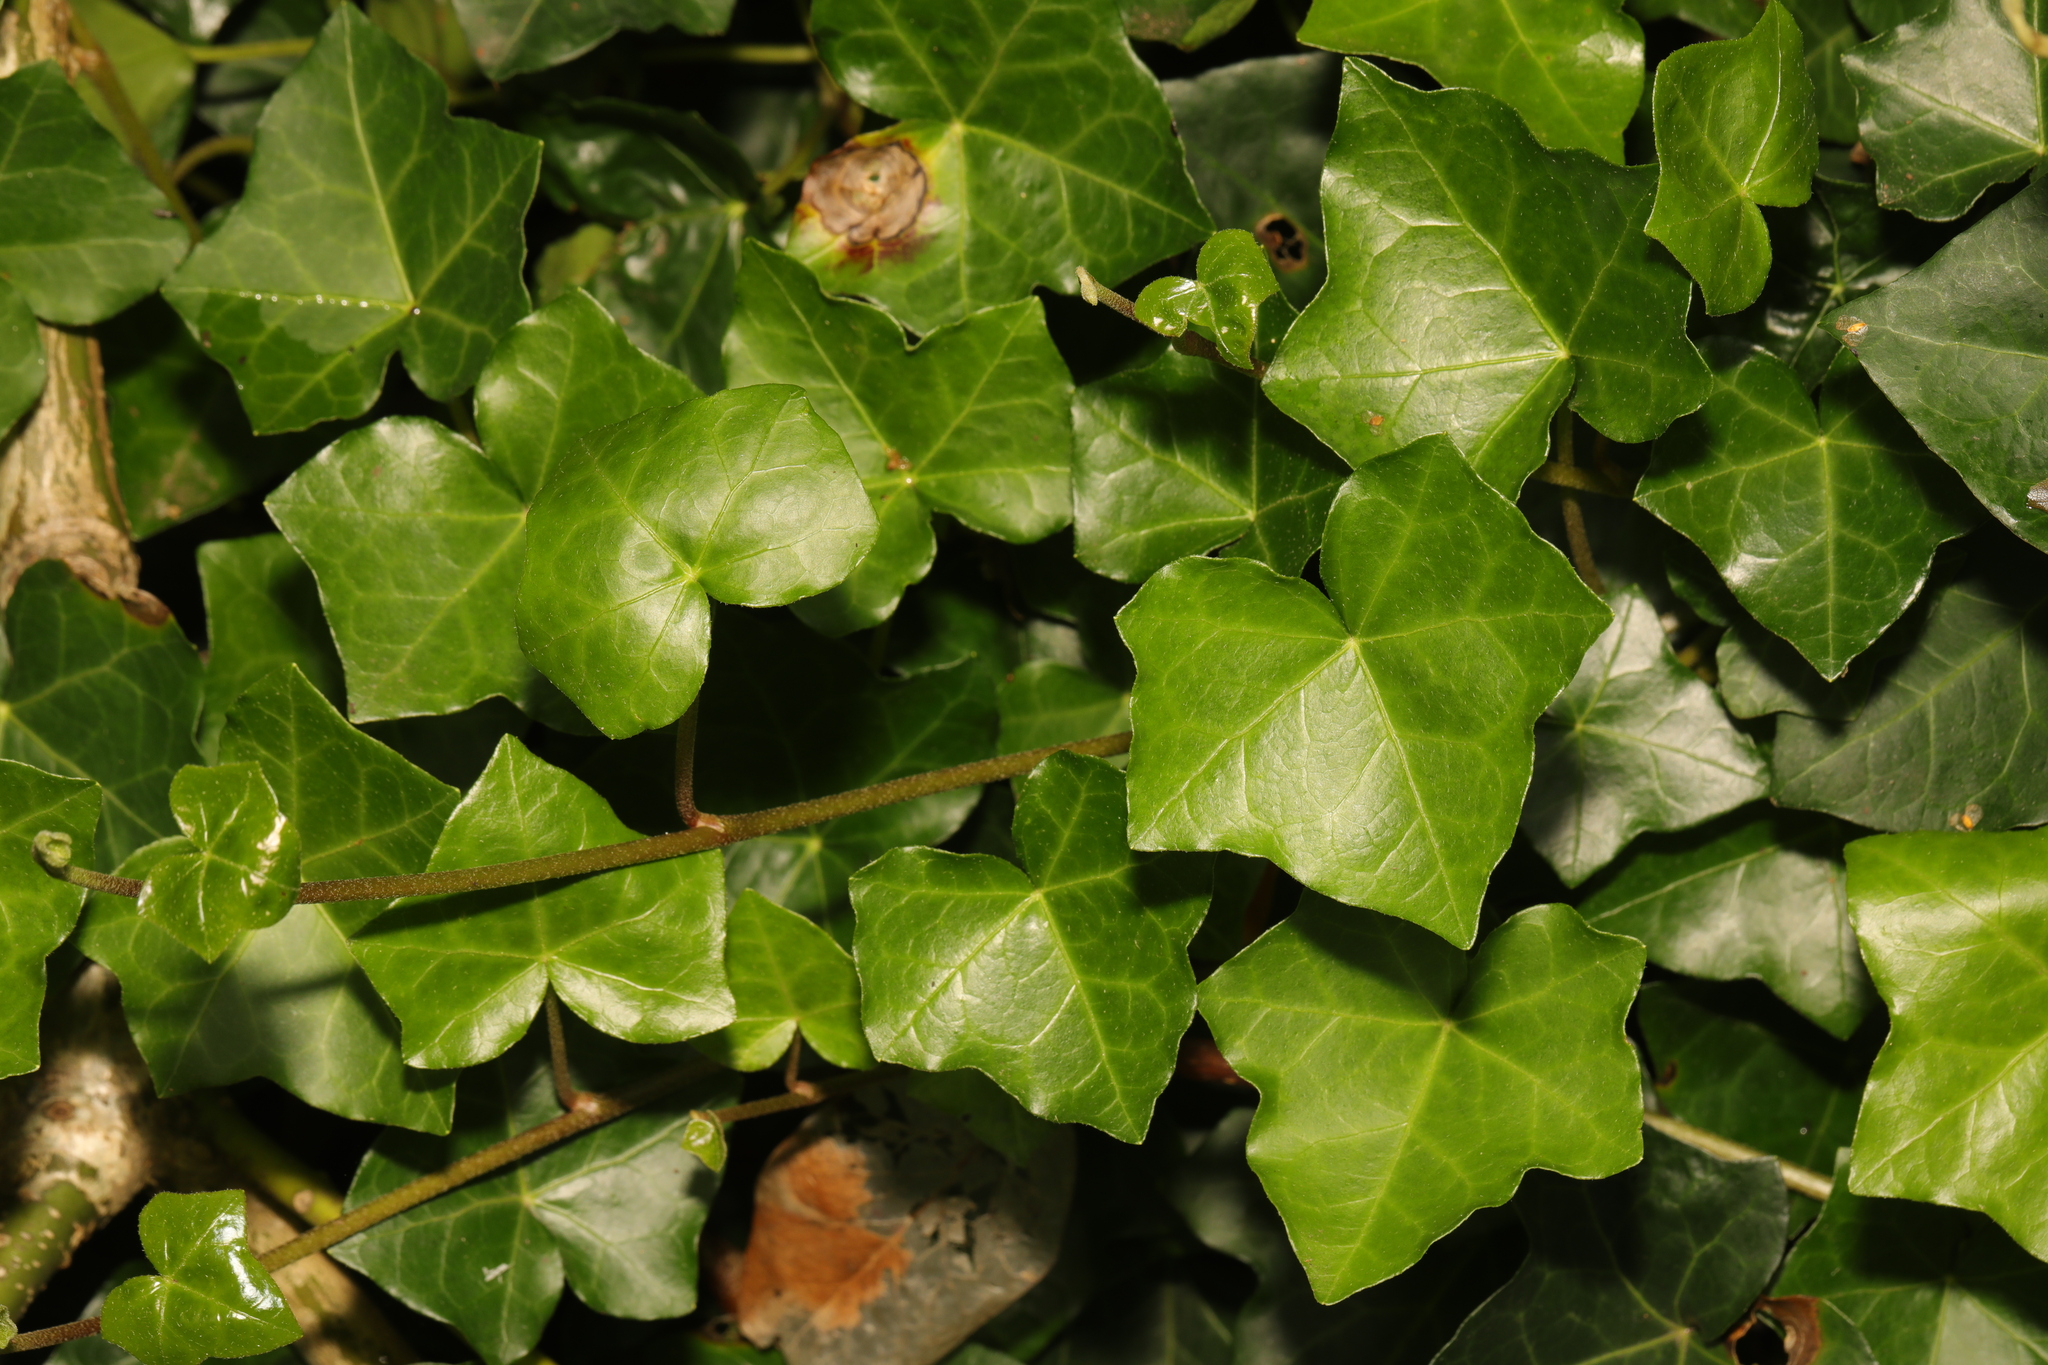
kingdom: Plantae
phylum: Tracheophyta
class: Magnoliopsida
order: Apiales
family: Araliaceae
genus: Hedera
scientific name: Hedera helix
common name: Ivy
